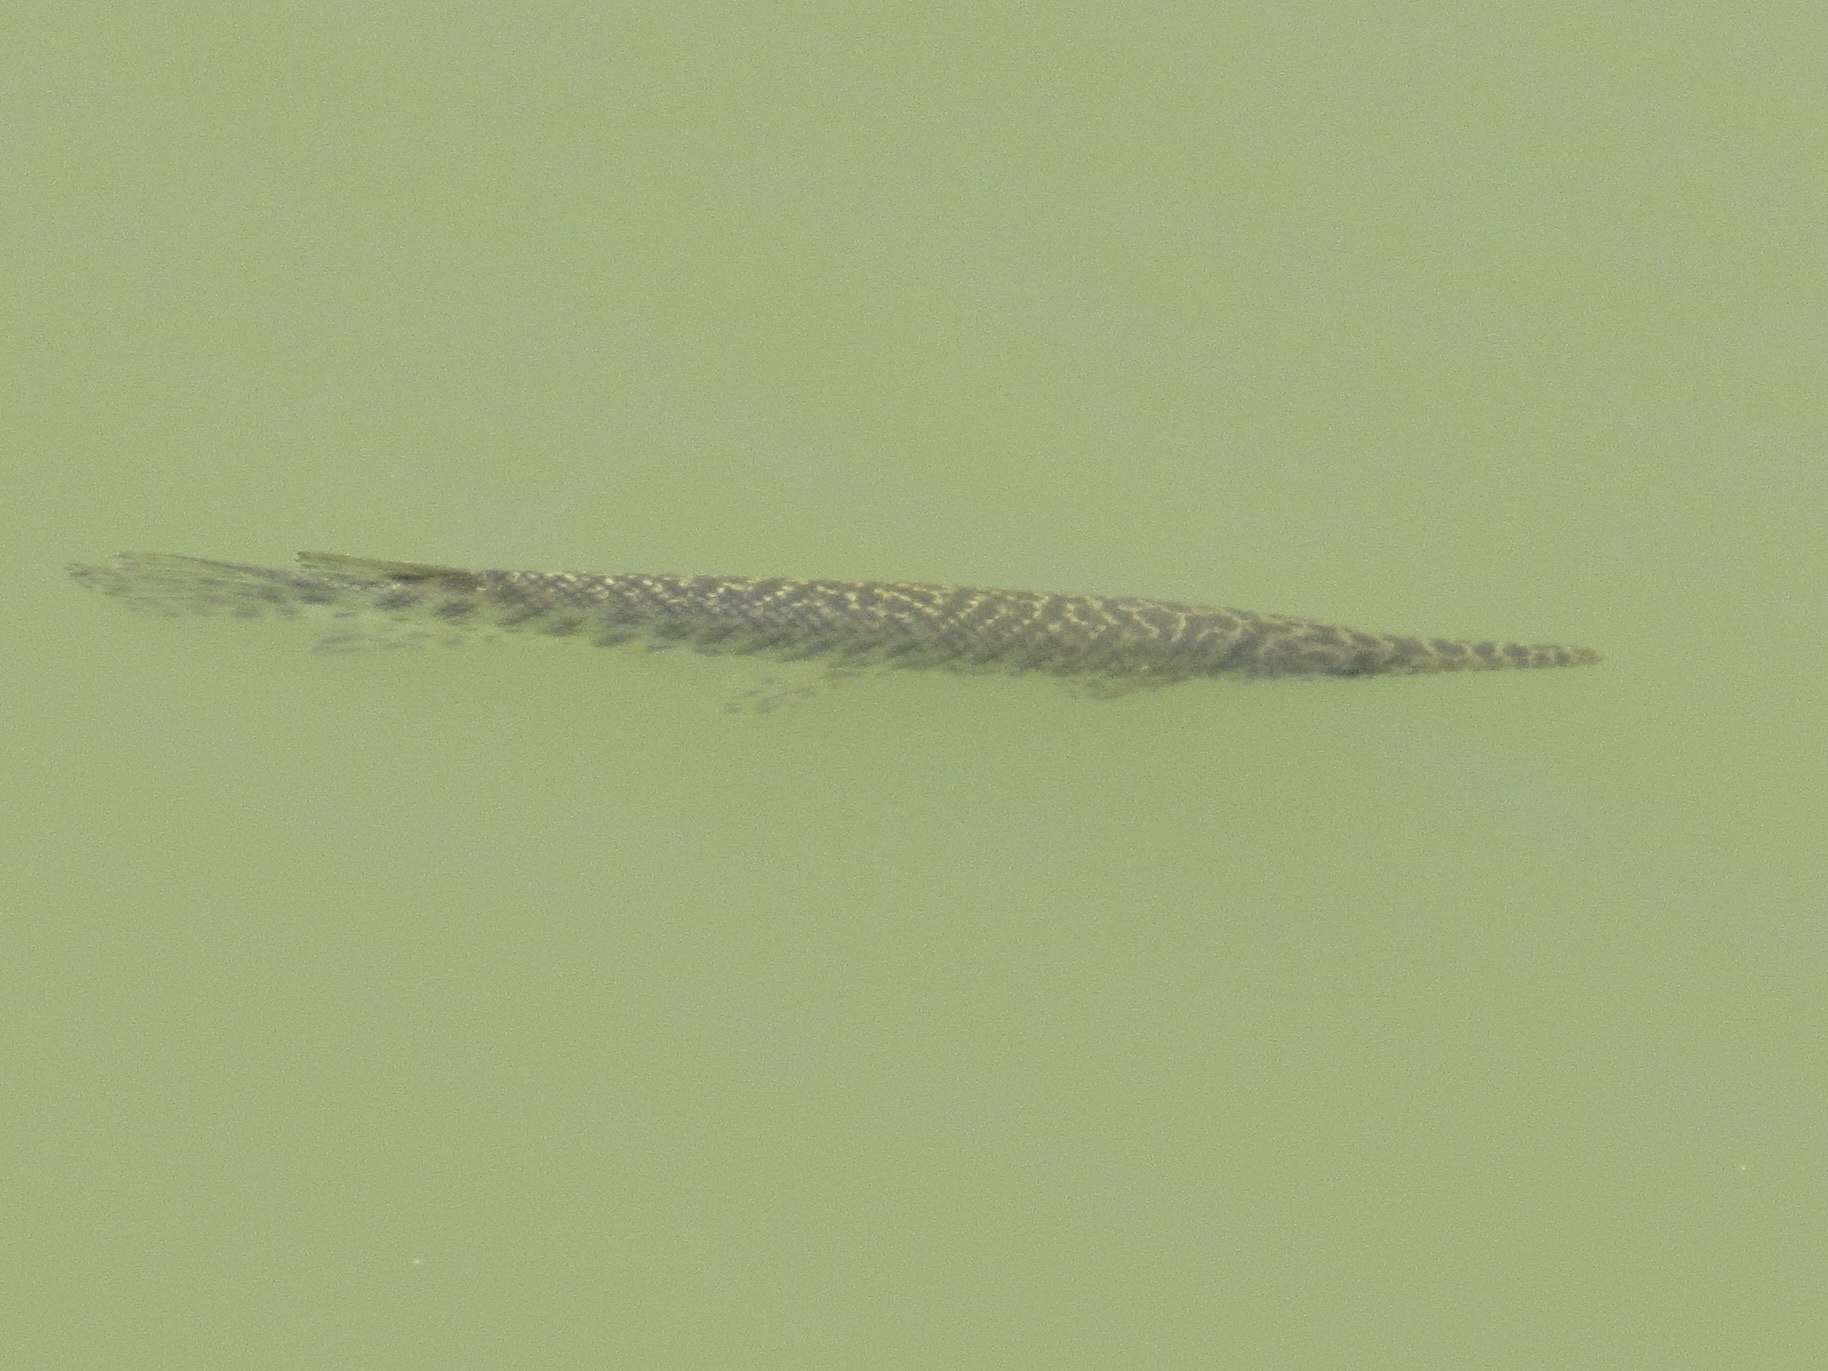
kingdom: Animalia
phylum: Chordata
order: Lepisosteiformes
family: Lepisosteidae
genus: Lepisosteus
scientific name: Lepisosteus oculatus
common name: Spotted gar
